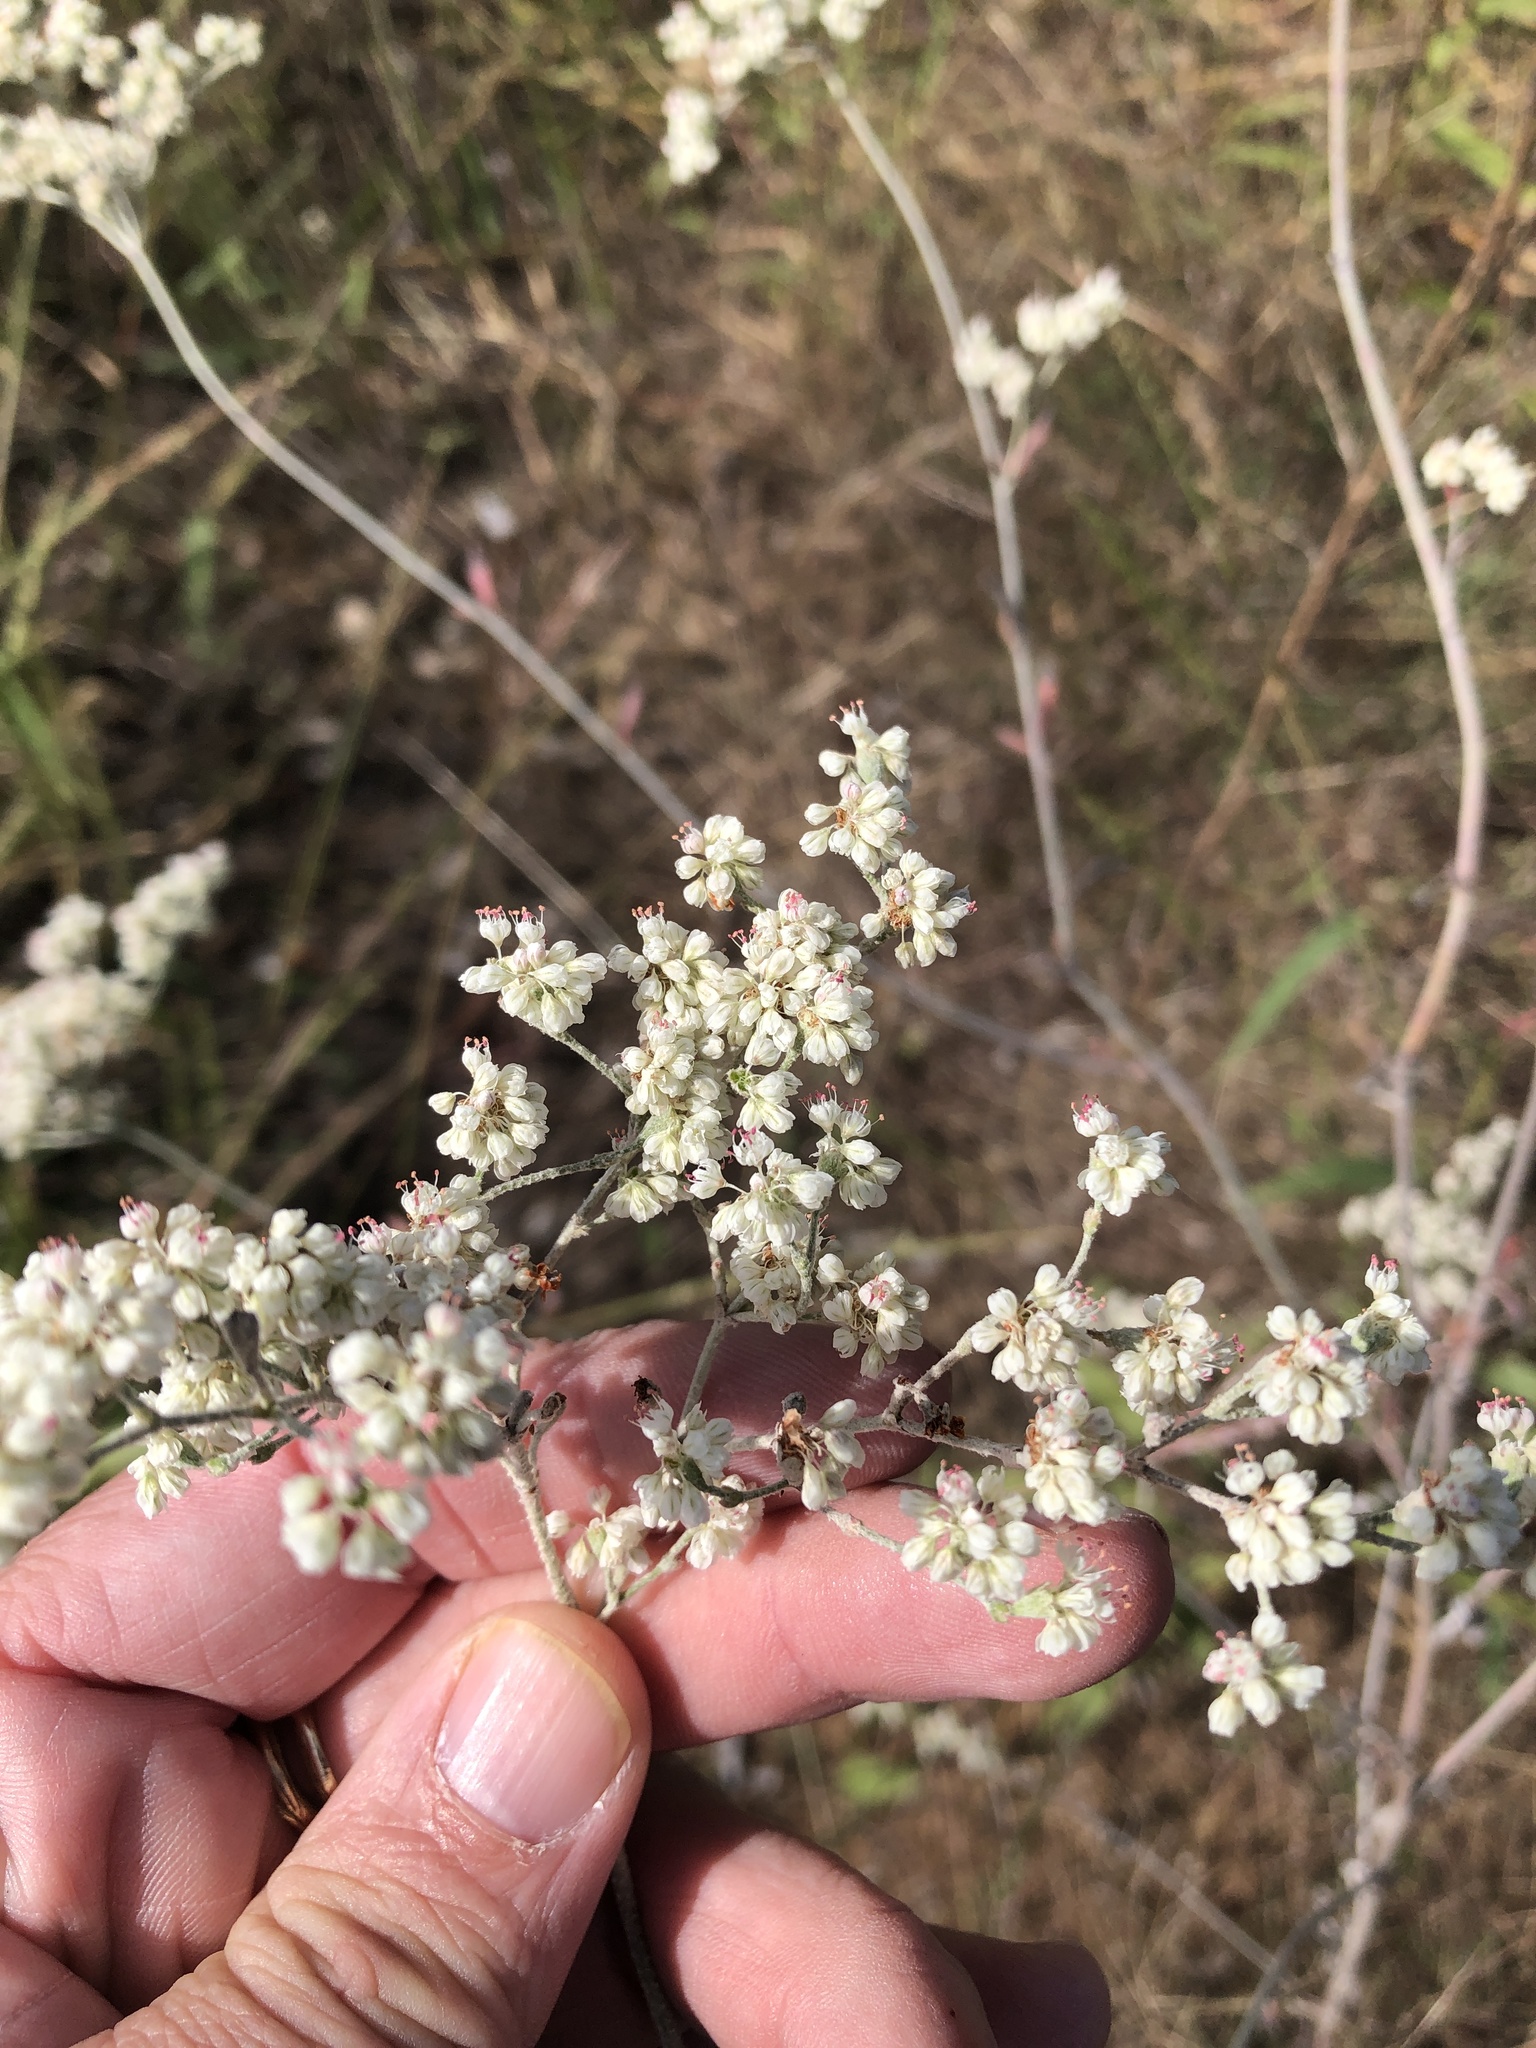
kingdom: Plantae
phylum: Tracheophyta
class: Magnoliopsida
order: Caryophyllales
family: Polygonaceae
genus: Eriogonum
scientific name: Eriogonum annuum
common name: Annual wild buckwheat
